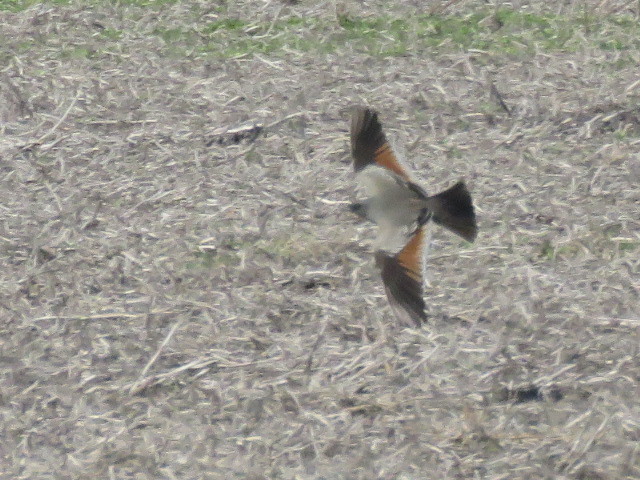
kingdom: Animalia
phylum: Chordata
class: Aves
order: Passeriformes
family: Tyrannidae
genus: Neoxolmis
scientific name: Neoxolmis rufiventris
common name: Chocolate-vented tyrant
